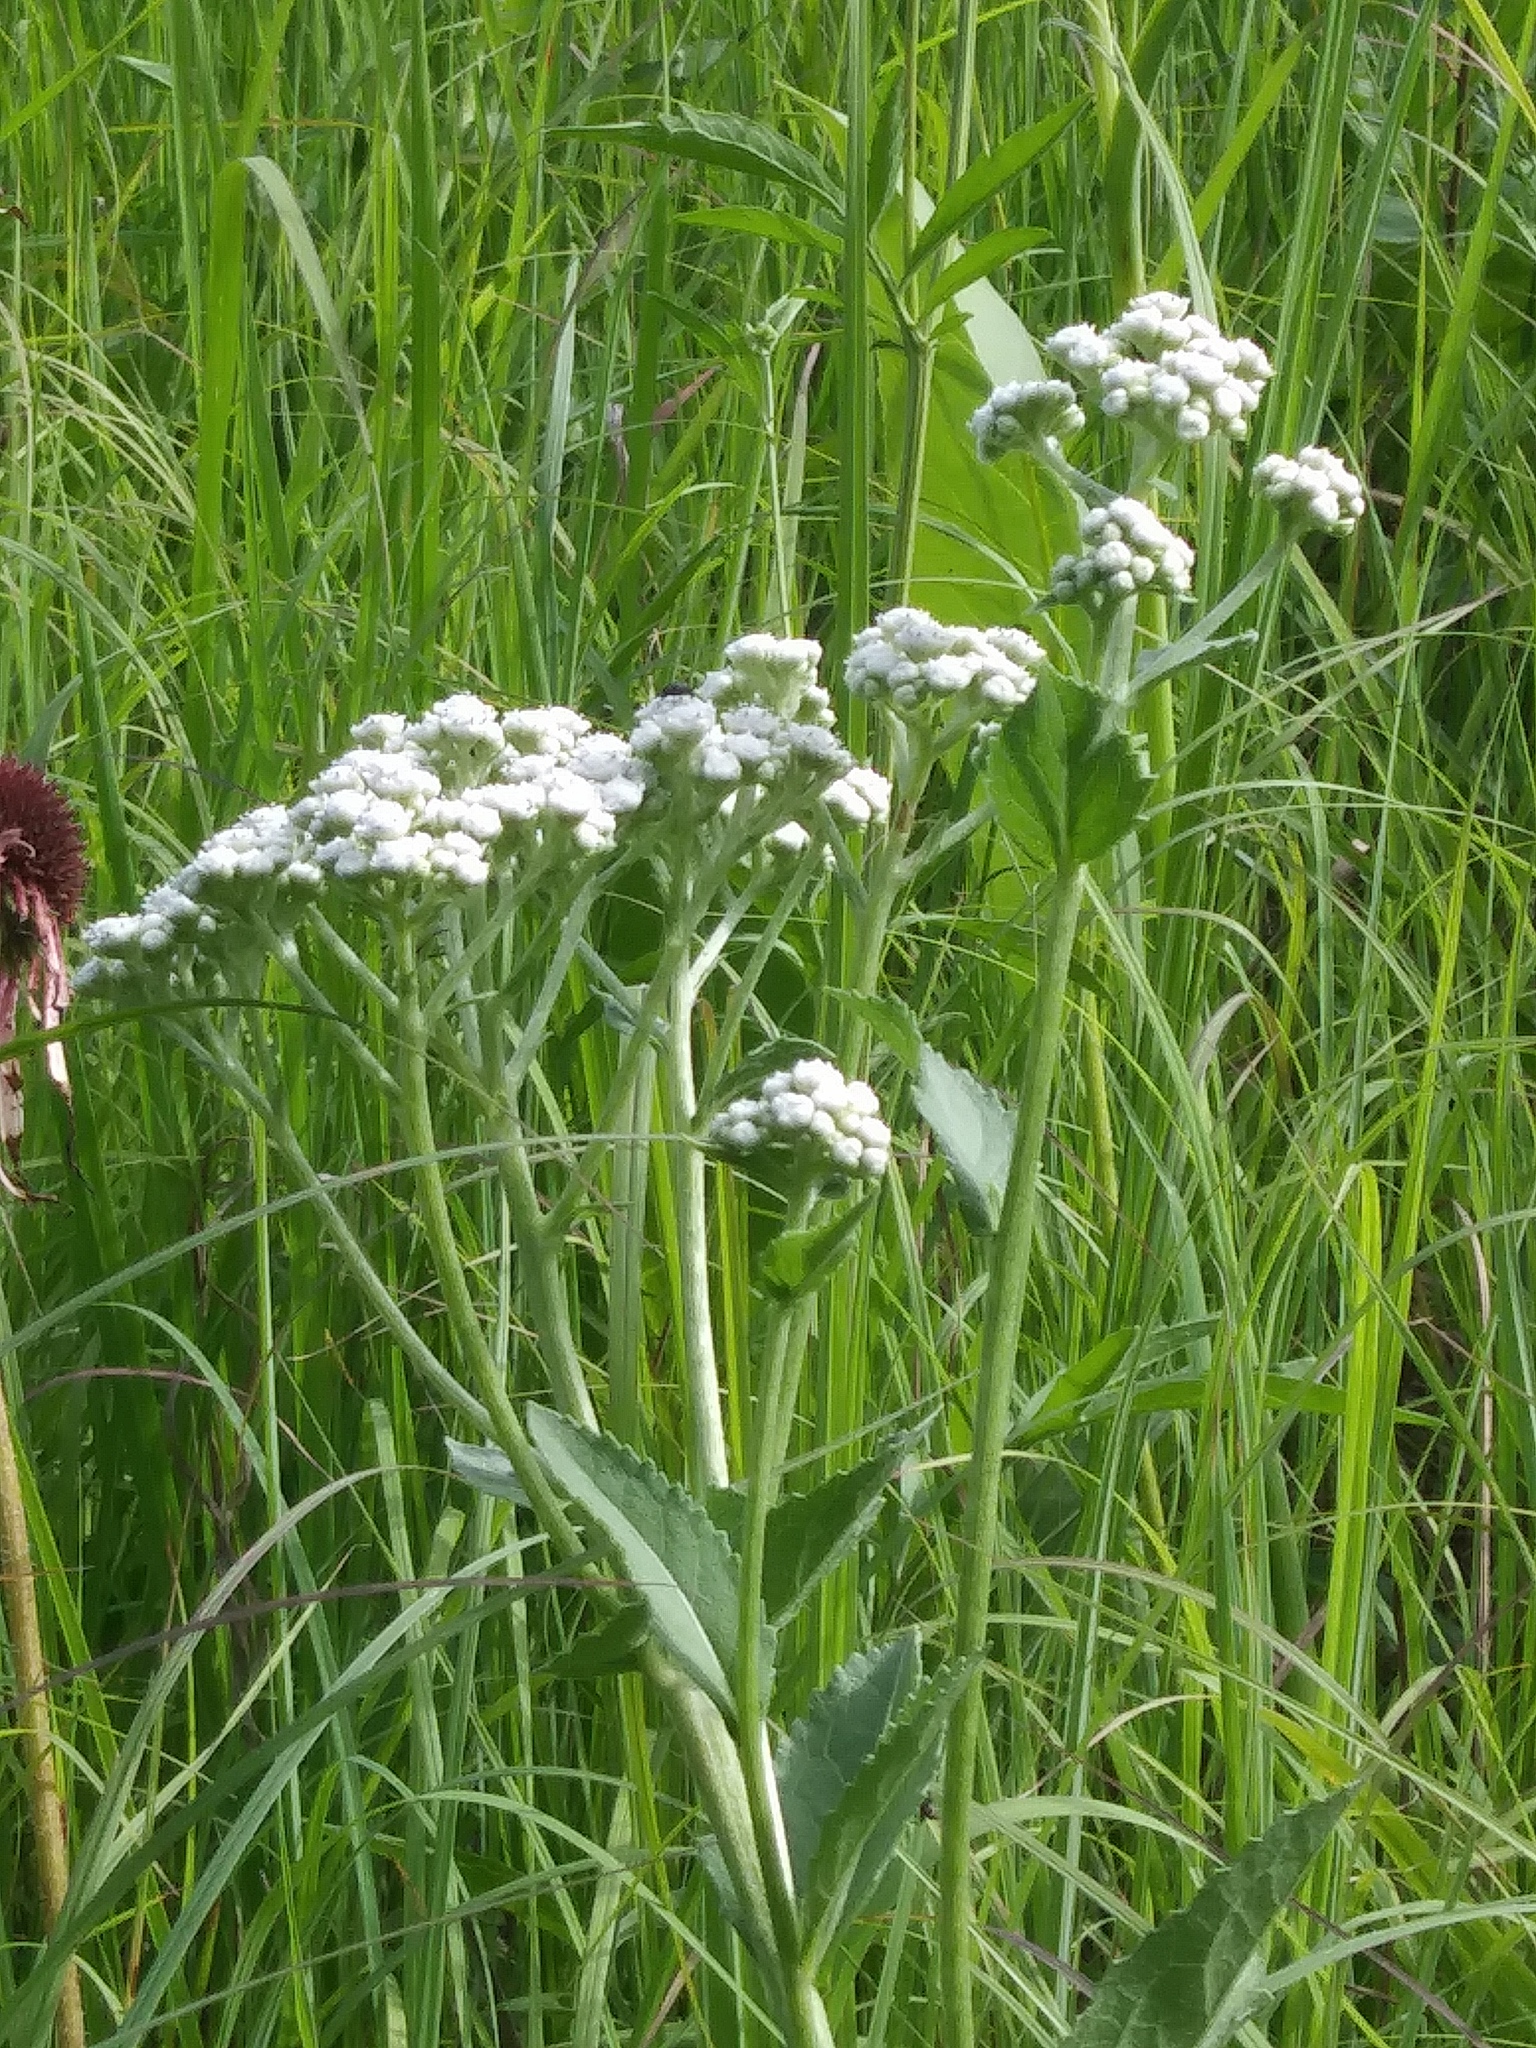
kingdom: Plantae
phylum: Tracheophyta
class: Magnoliopsida
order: Asterales
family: Asteraceae
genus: Parthenium
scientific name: Parthenium integrifolium
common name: American feverfew
